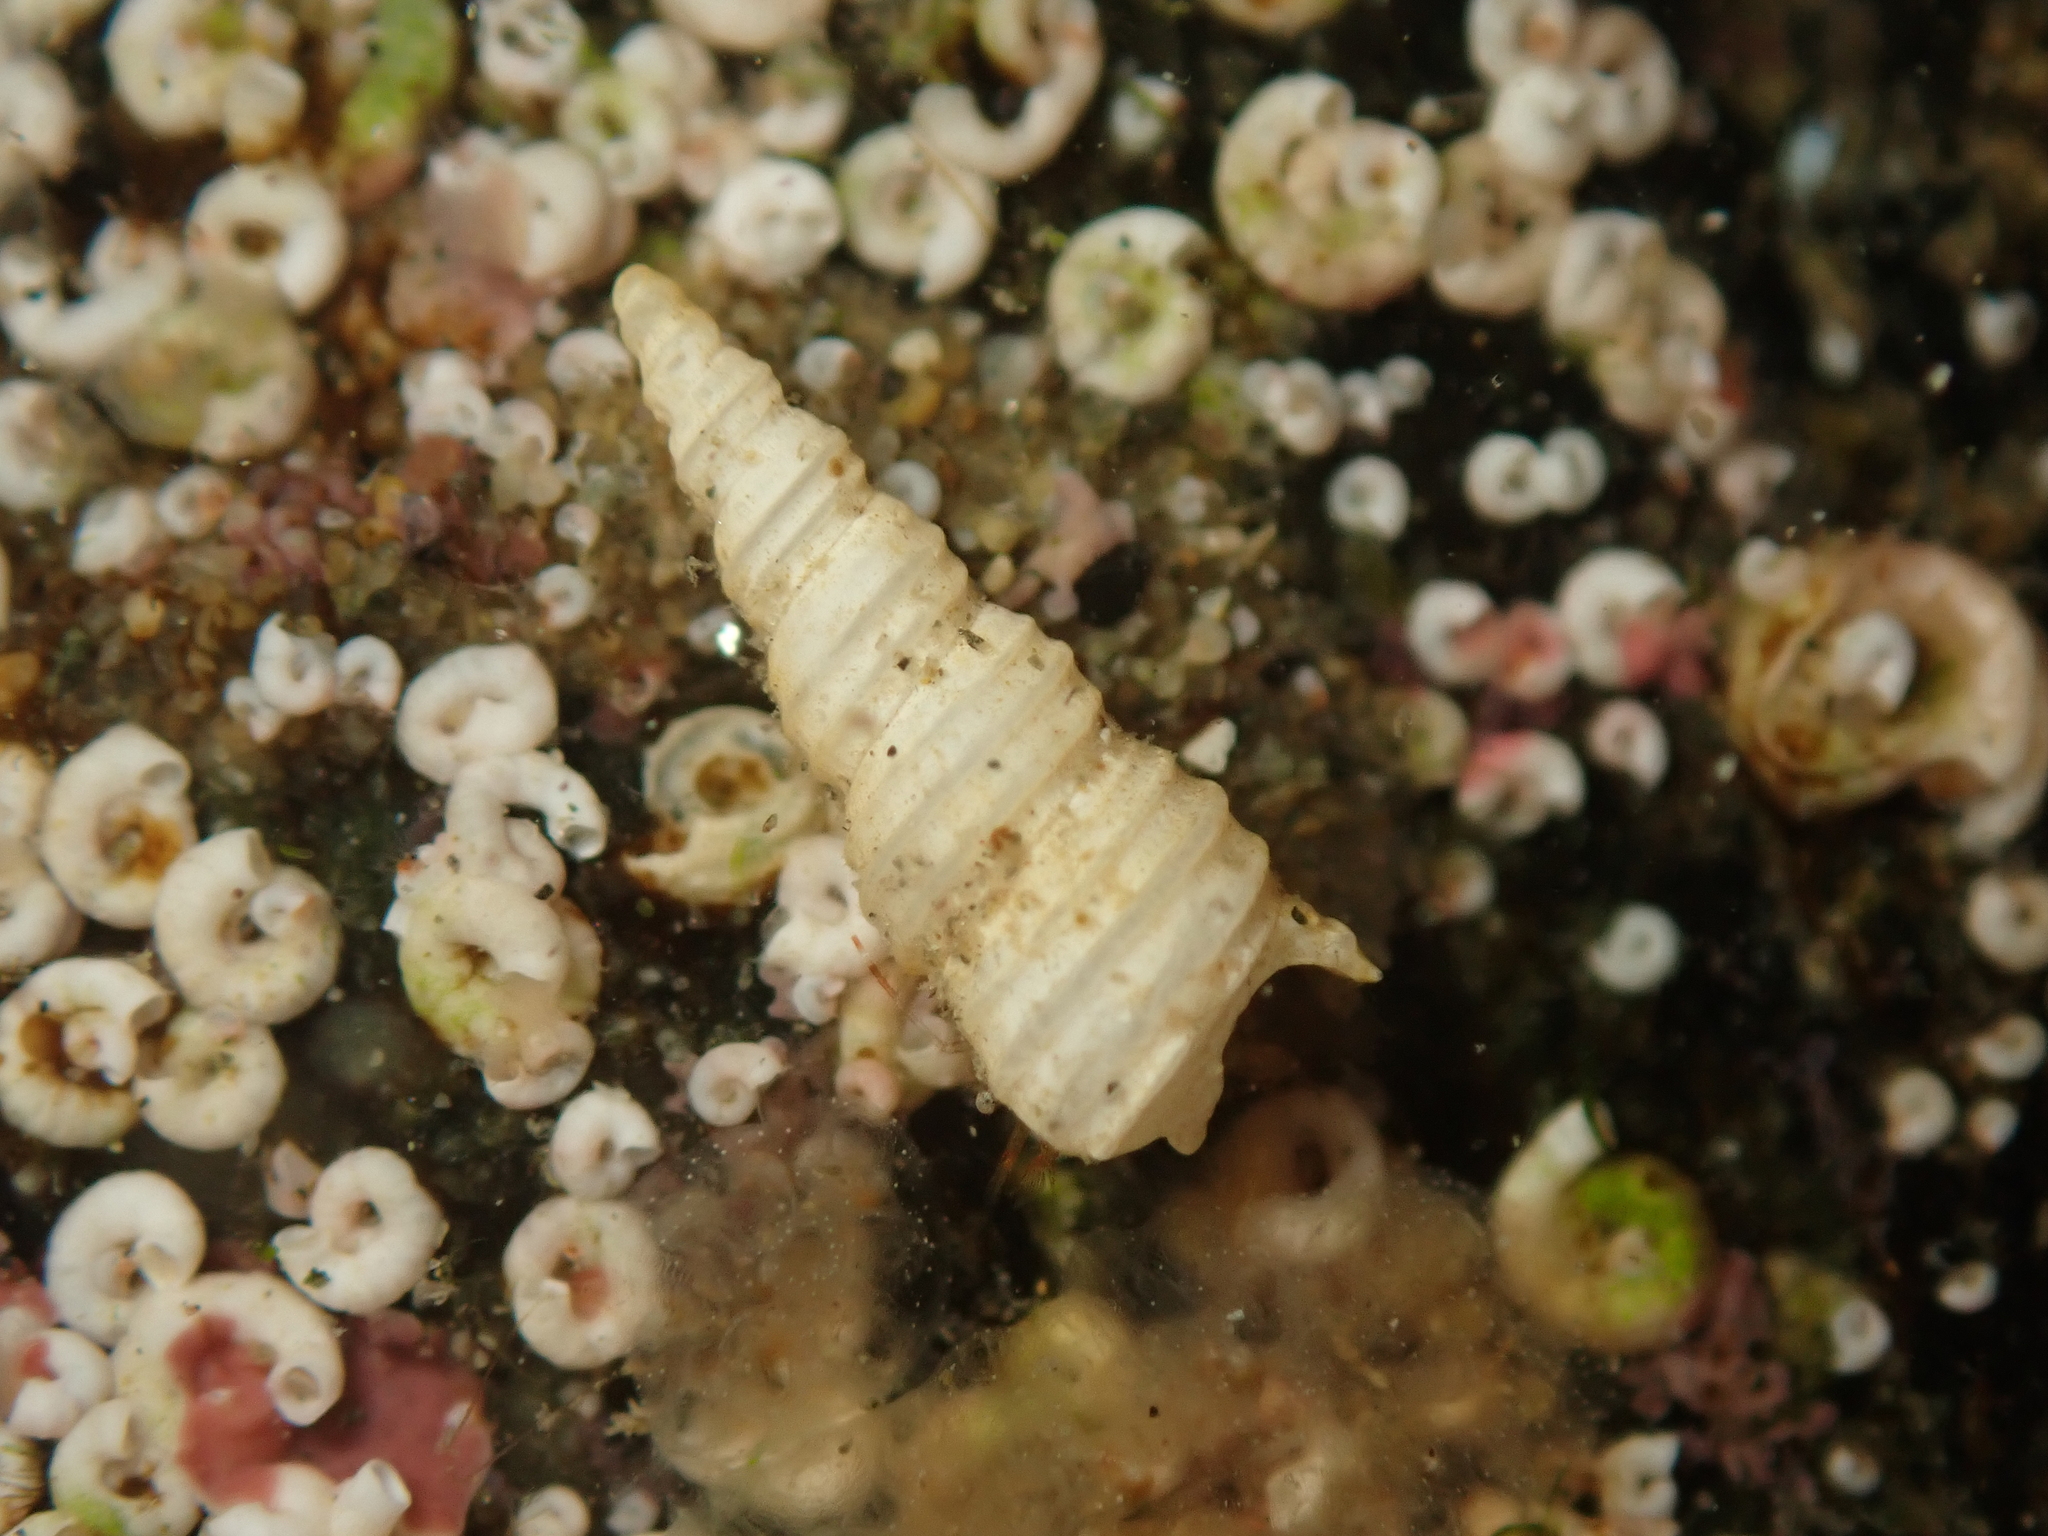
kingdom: Animalia
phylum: Mollusca
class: Gastropoda
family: Turritellidae
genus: Stiracolpus
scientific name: Stiracolpus symmetricus
